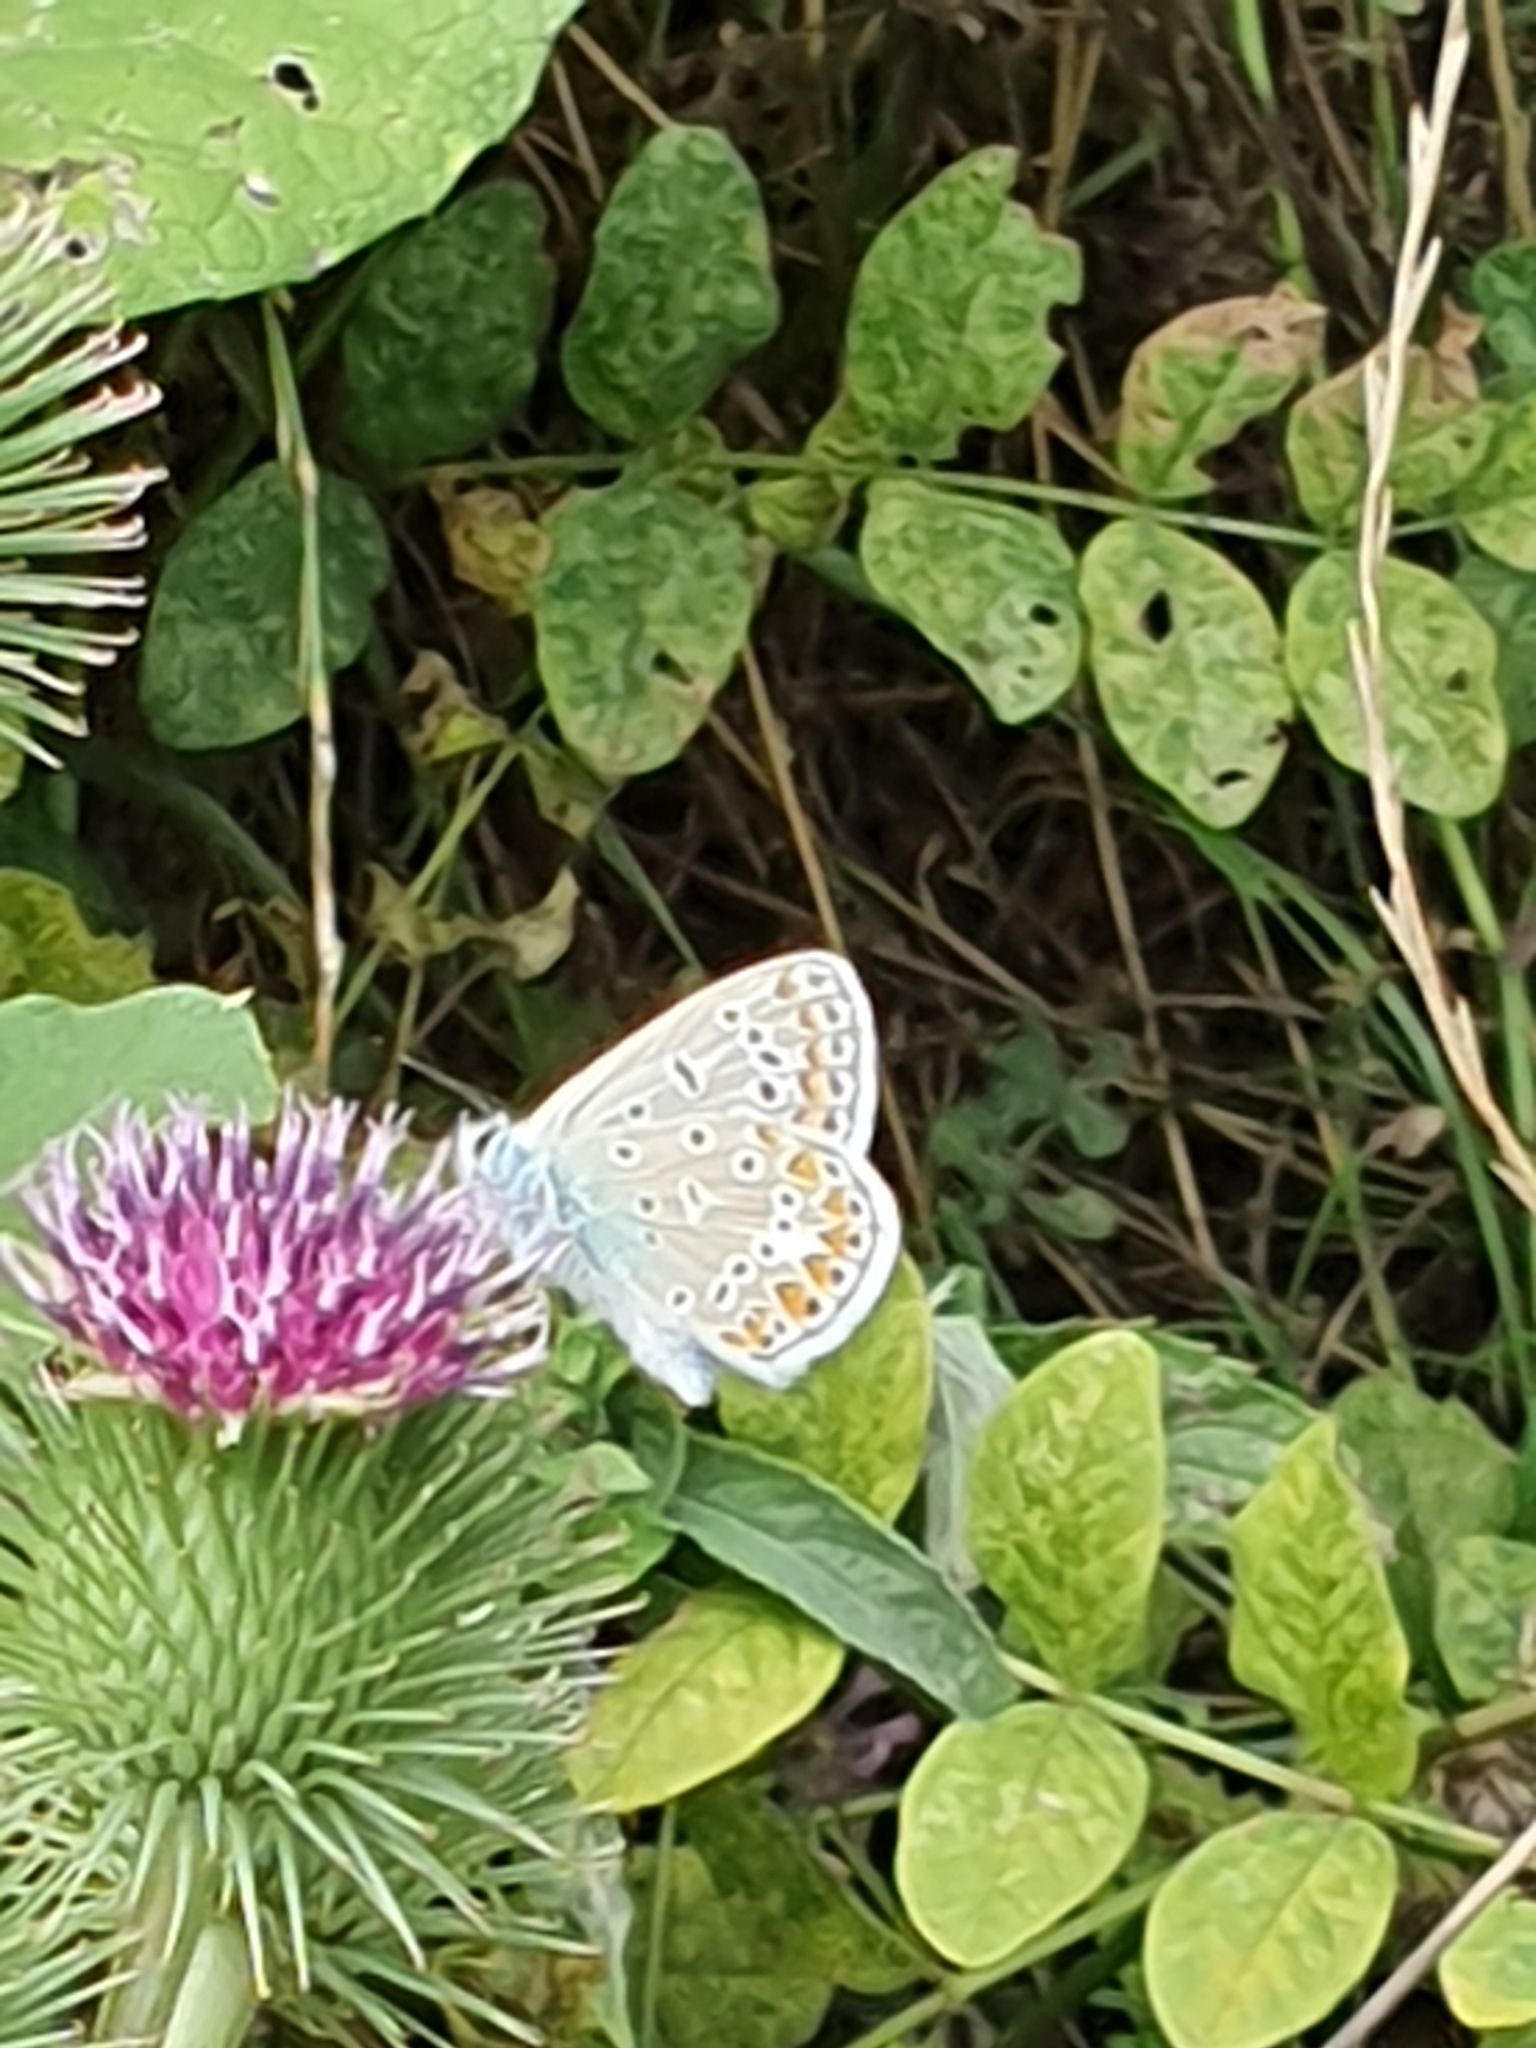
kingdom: Animalia
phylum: Arthropoda
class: Insecta
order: Lepidoptera
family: Lycaenidae
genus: Polyommatus
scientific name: Polyommatus icarus
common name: Common blue
